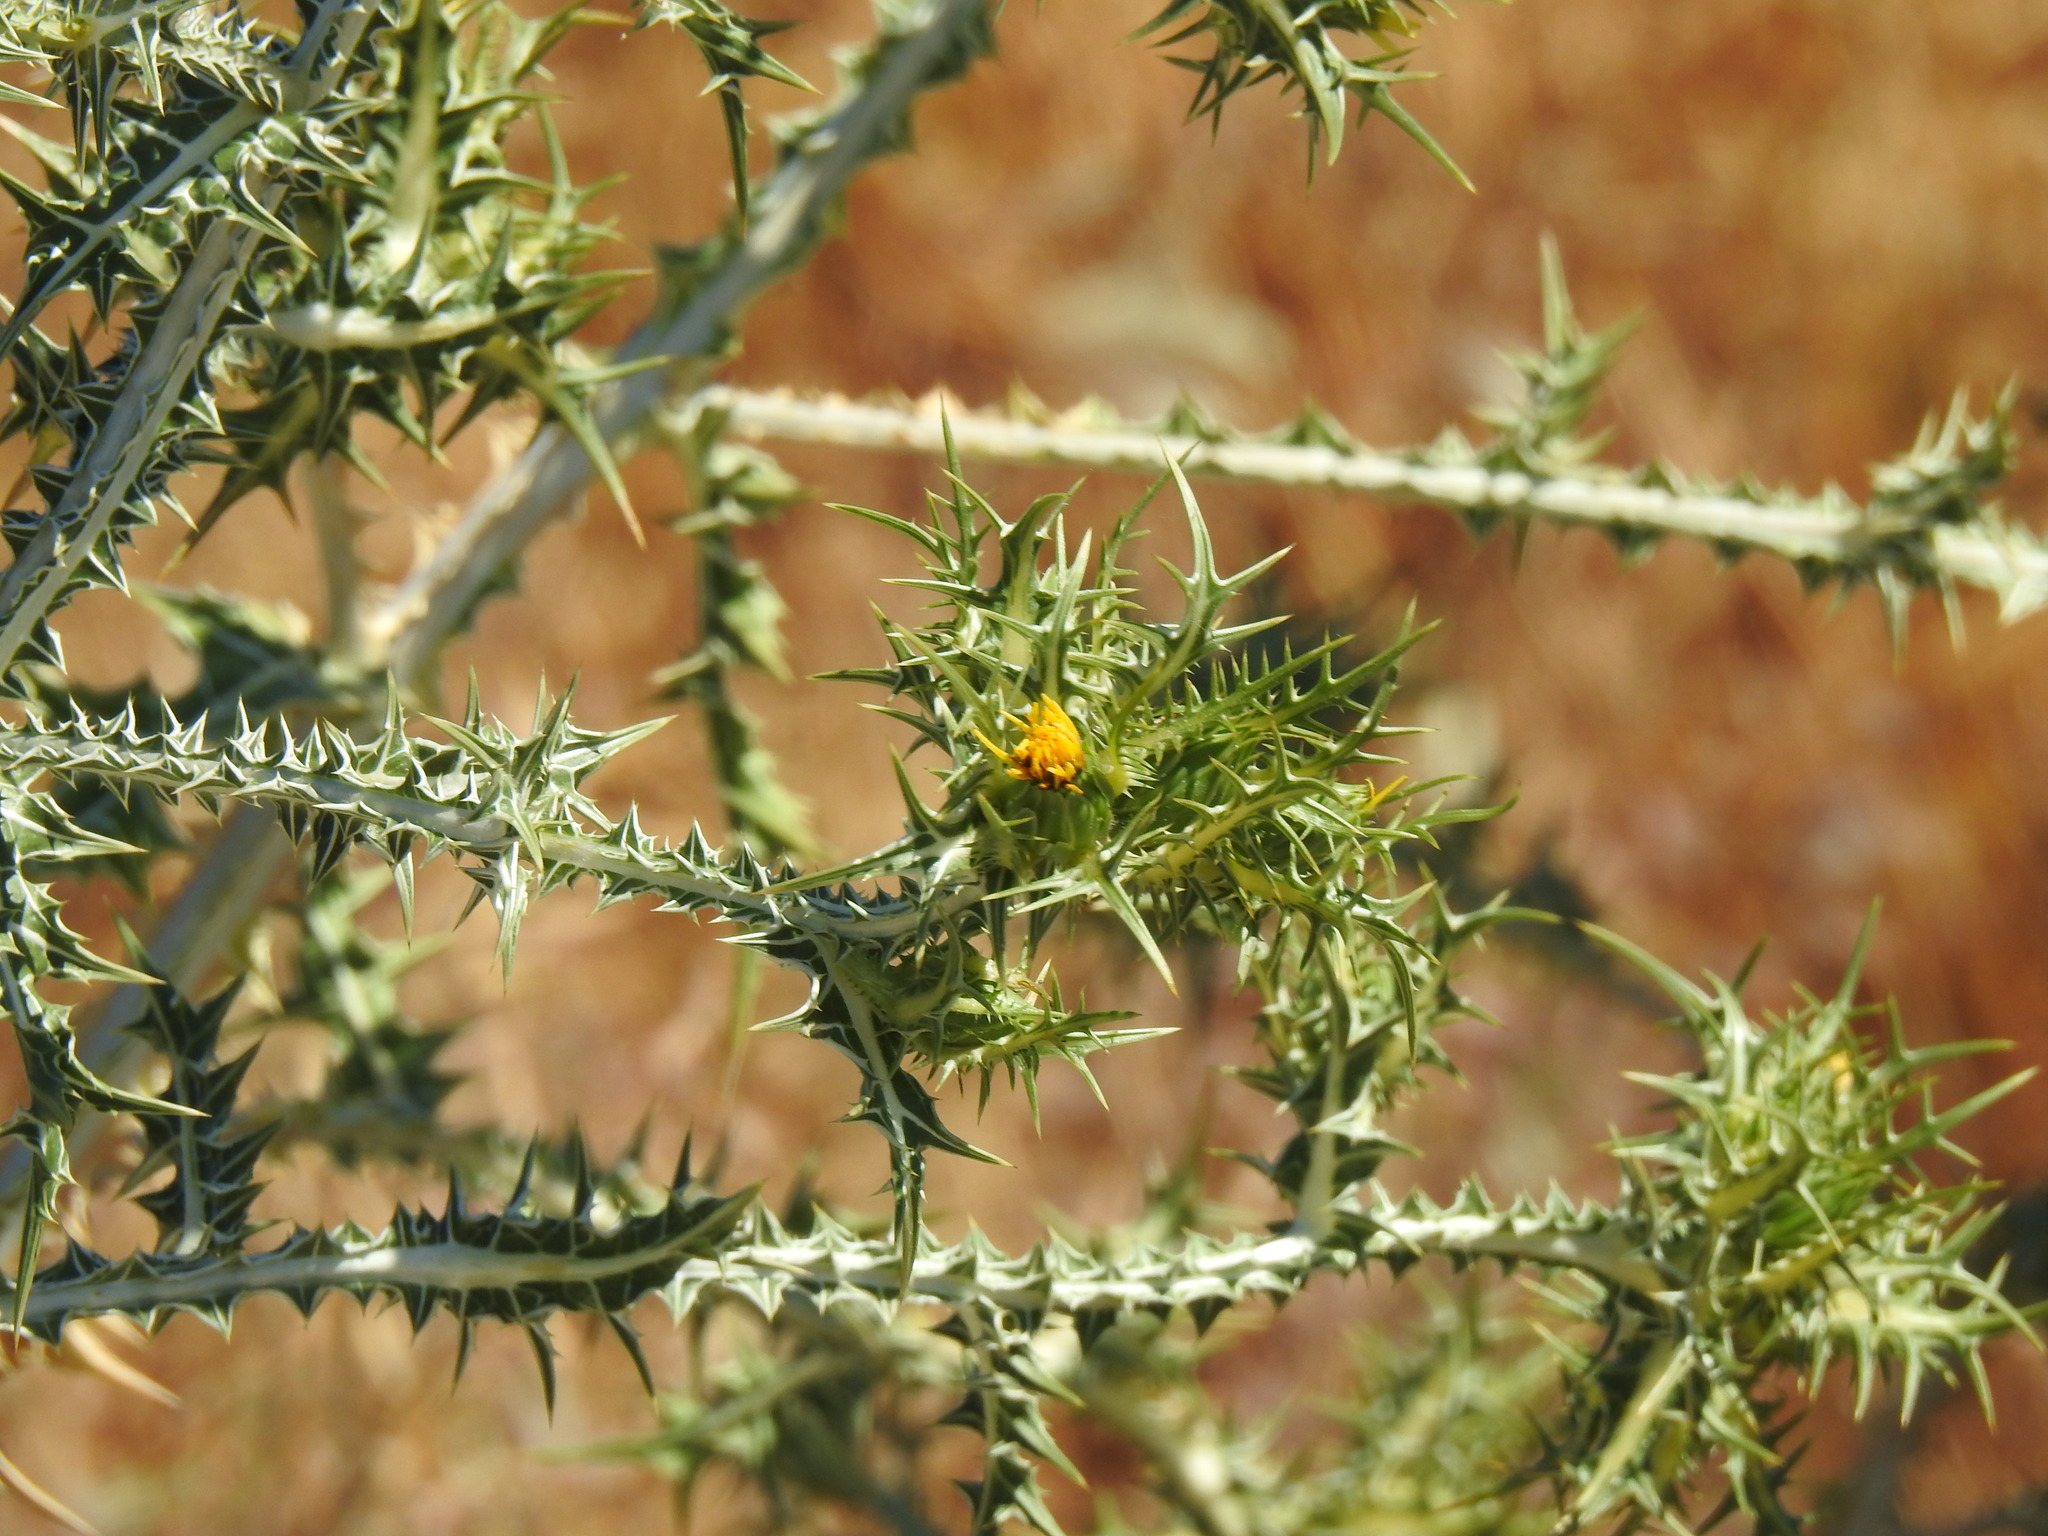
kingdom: Plantae
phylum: Tracheophyta
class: Magnoliopsida
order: Asterales
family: Asteraceae
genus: Scolymus
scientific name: Scolymus maculatus
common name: Spotted thistle
